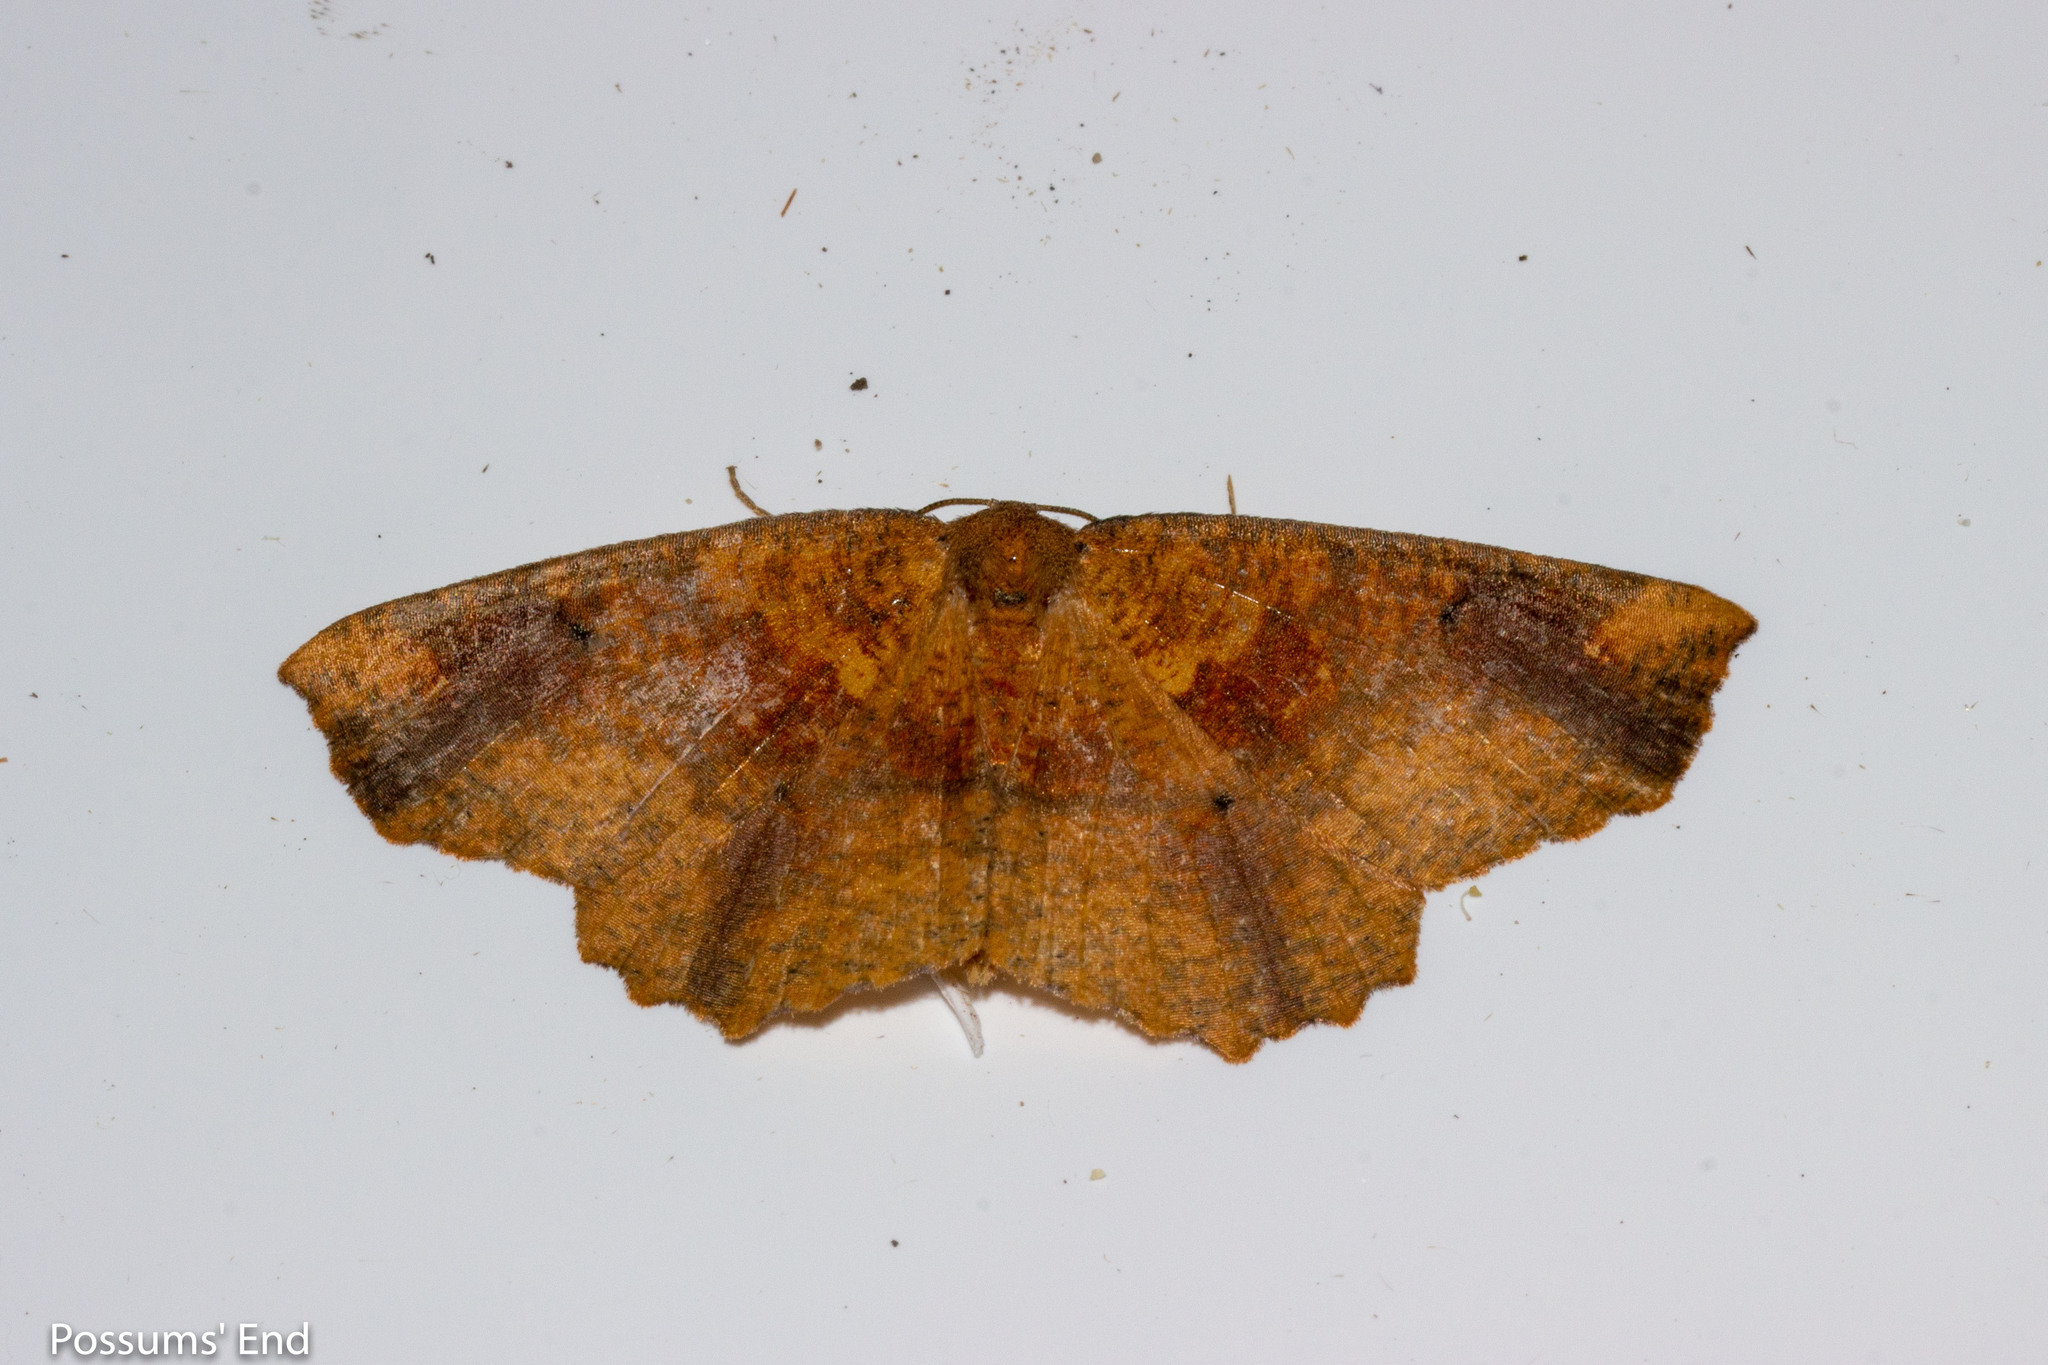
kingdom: Animalia
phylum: Arthropoda
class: Insecta
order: Lepidoptera
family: Geometridae
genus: Xyridacma
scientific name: Xyridacma ustaria
